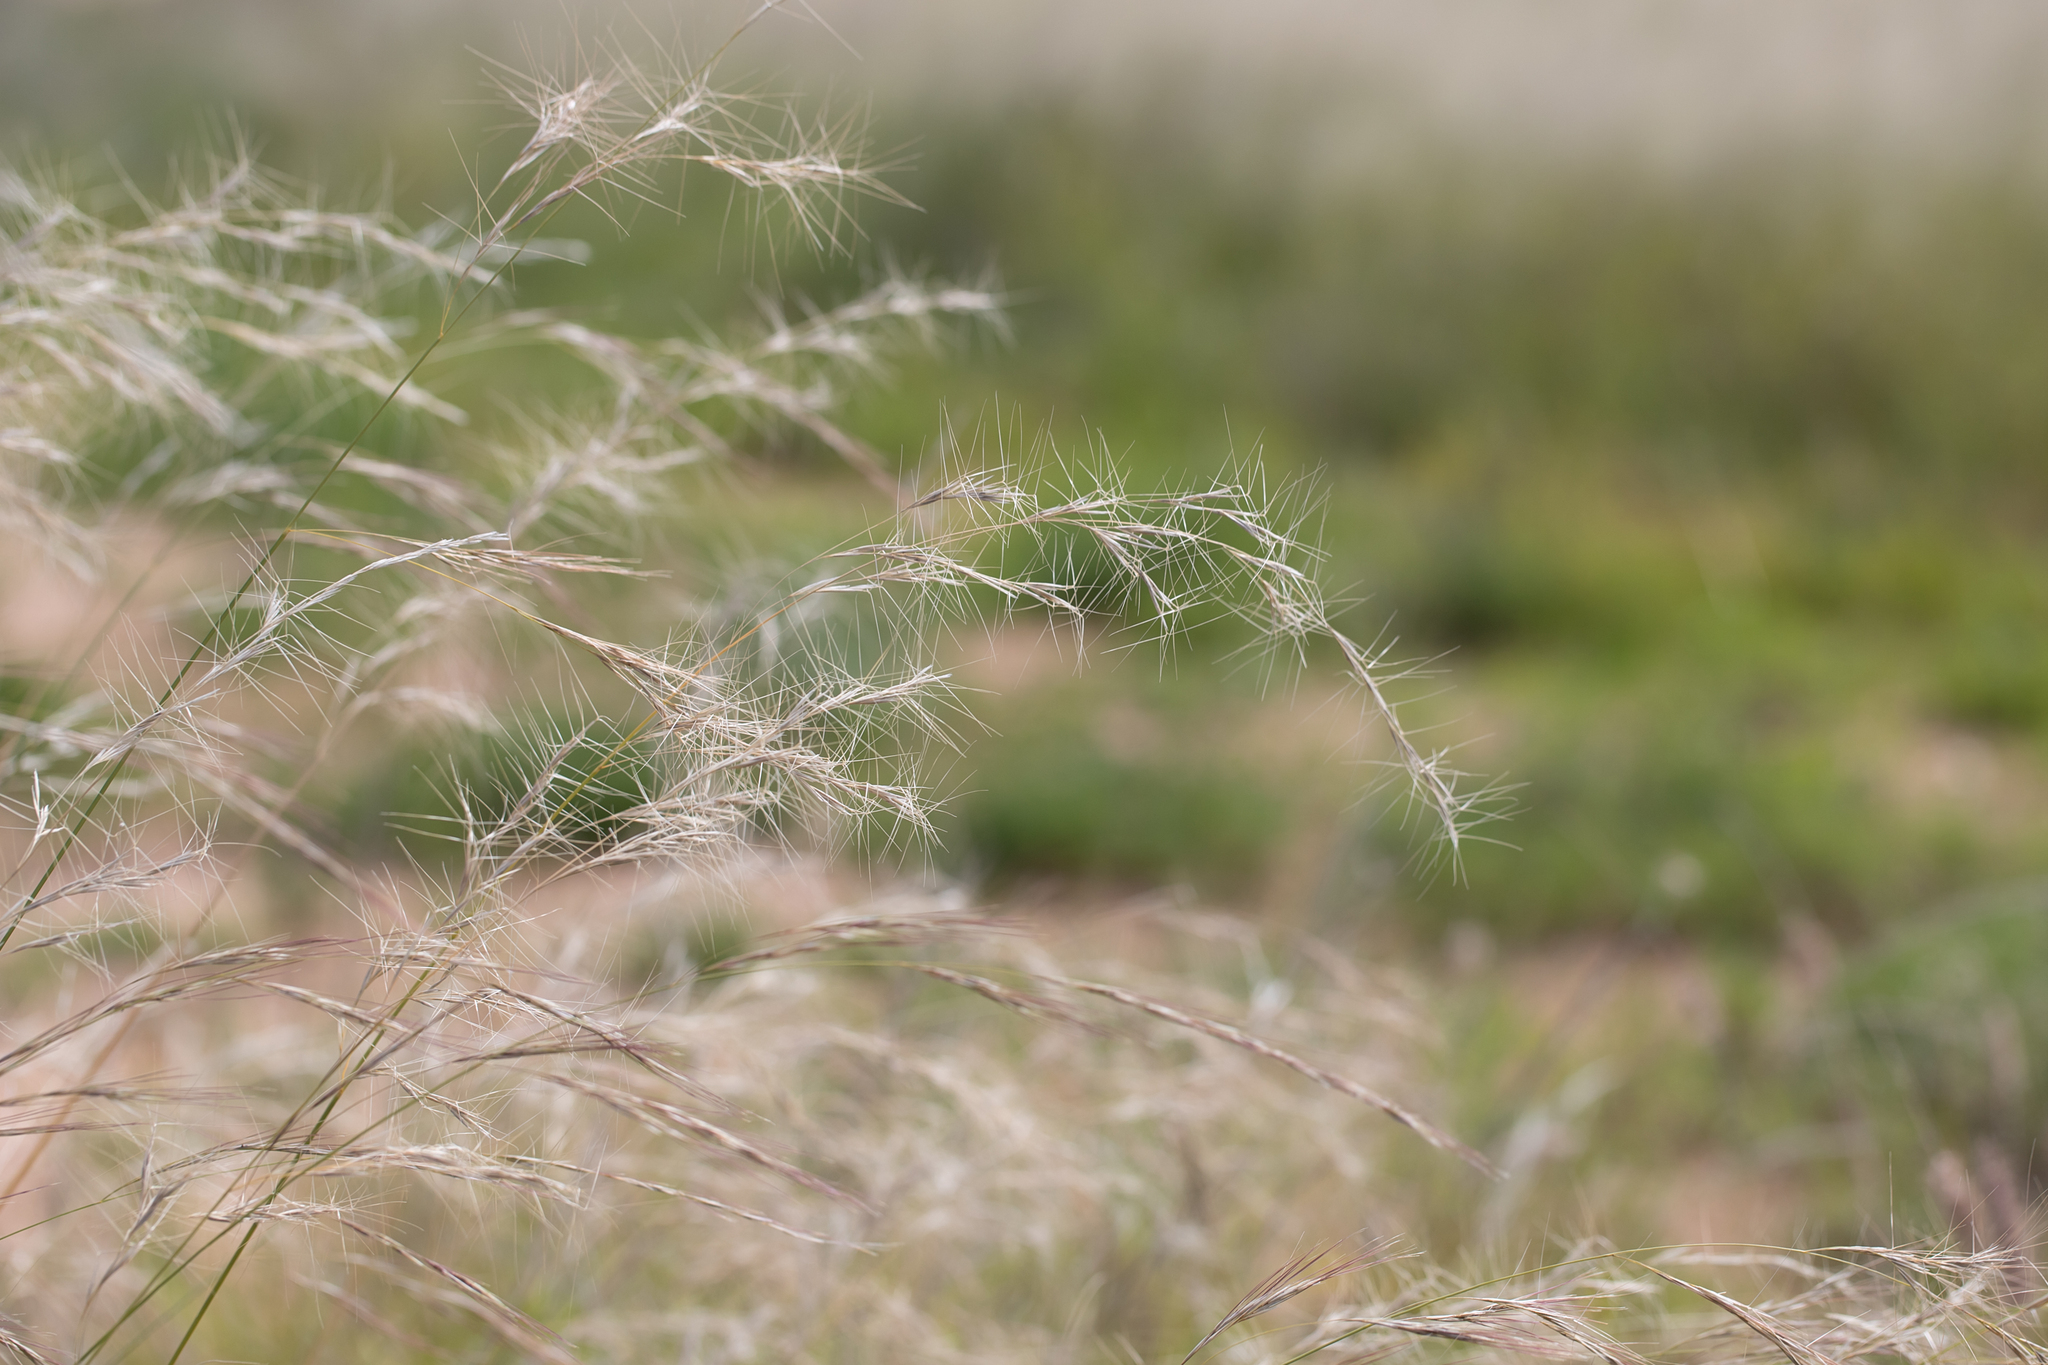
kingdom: Plantae
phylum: Tracheophyta
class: Liliopsida
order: Poales
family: Poaceae
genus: Aristida
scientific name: Aristida latifolia
